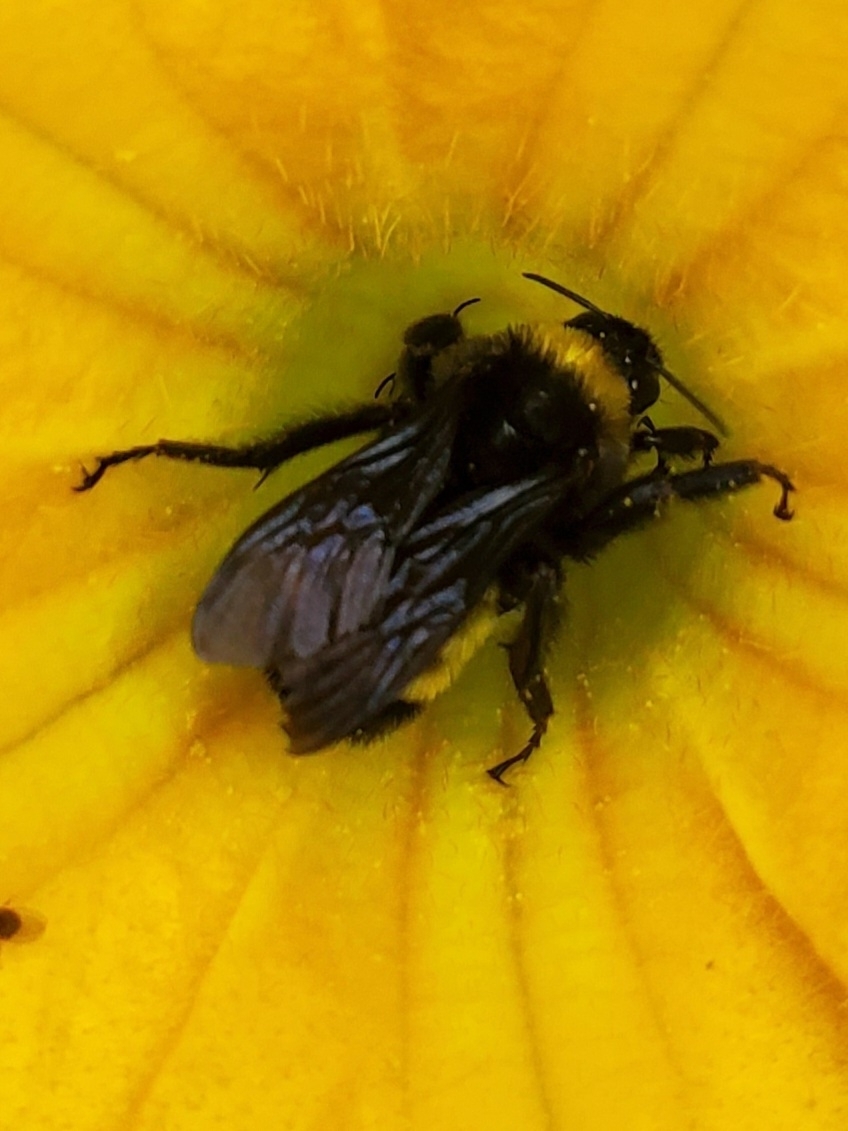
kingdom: Animalia
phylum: Arthropoda
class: Insecta
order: Hymenoptera
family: Apidae
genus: Bombus
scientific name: Bombus pensylvanicus
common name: Bumble bee
